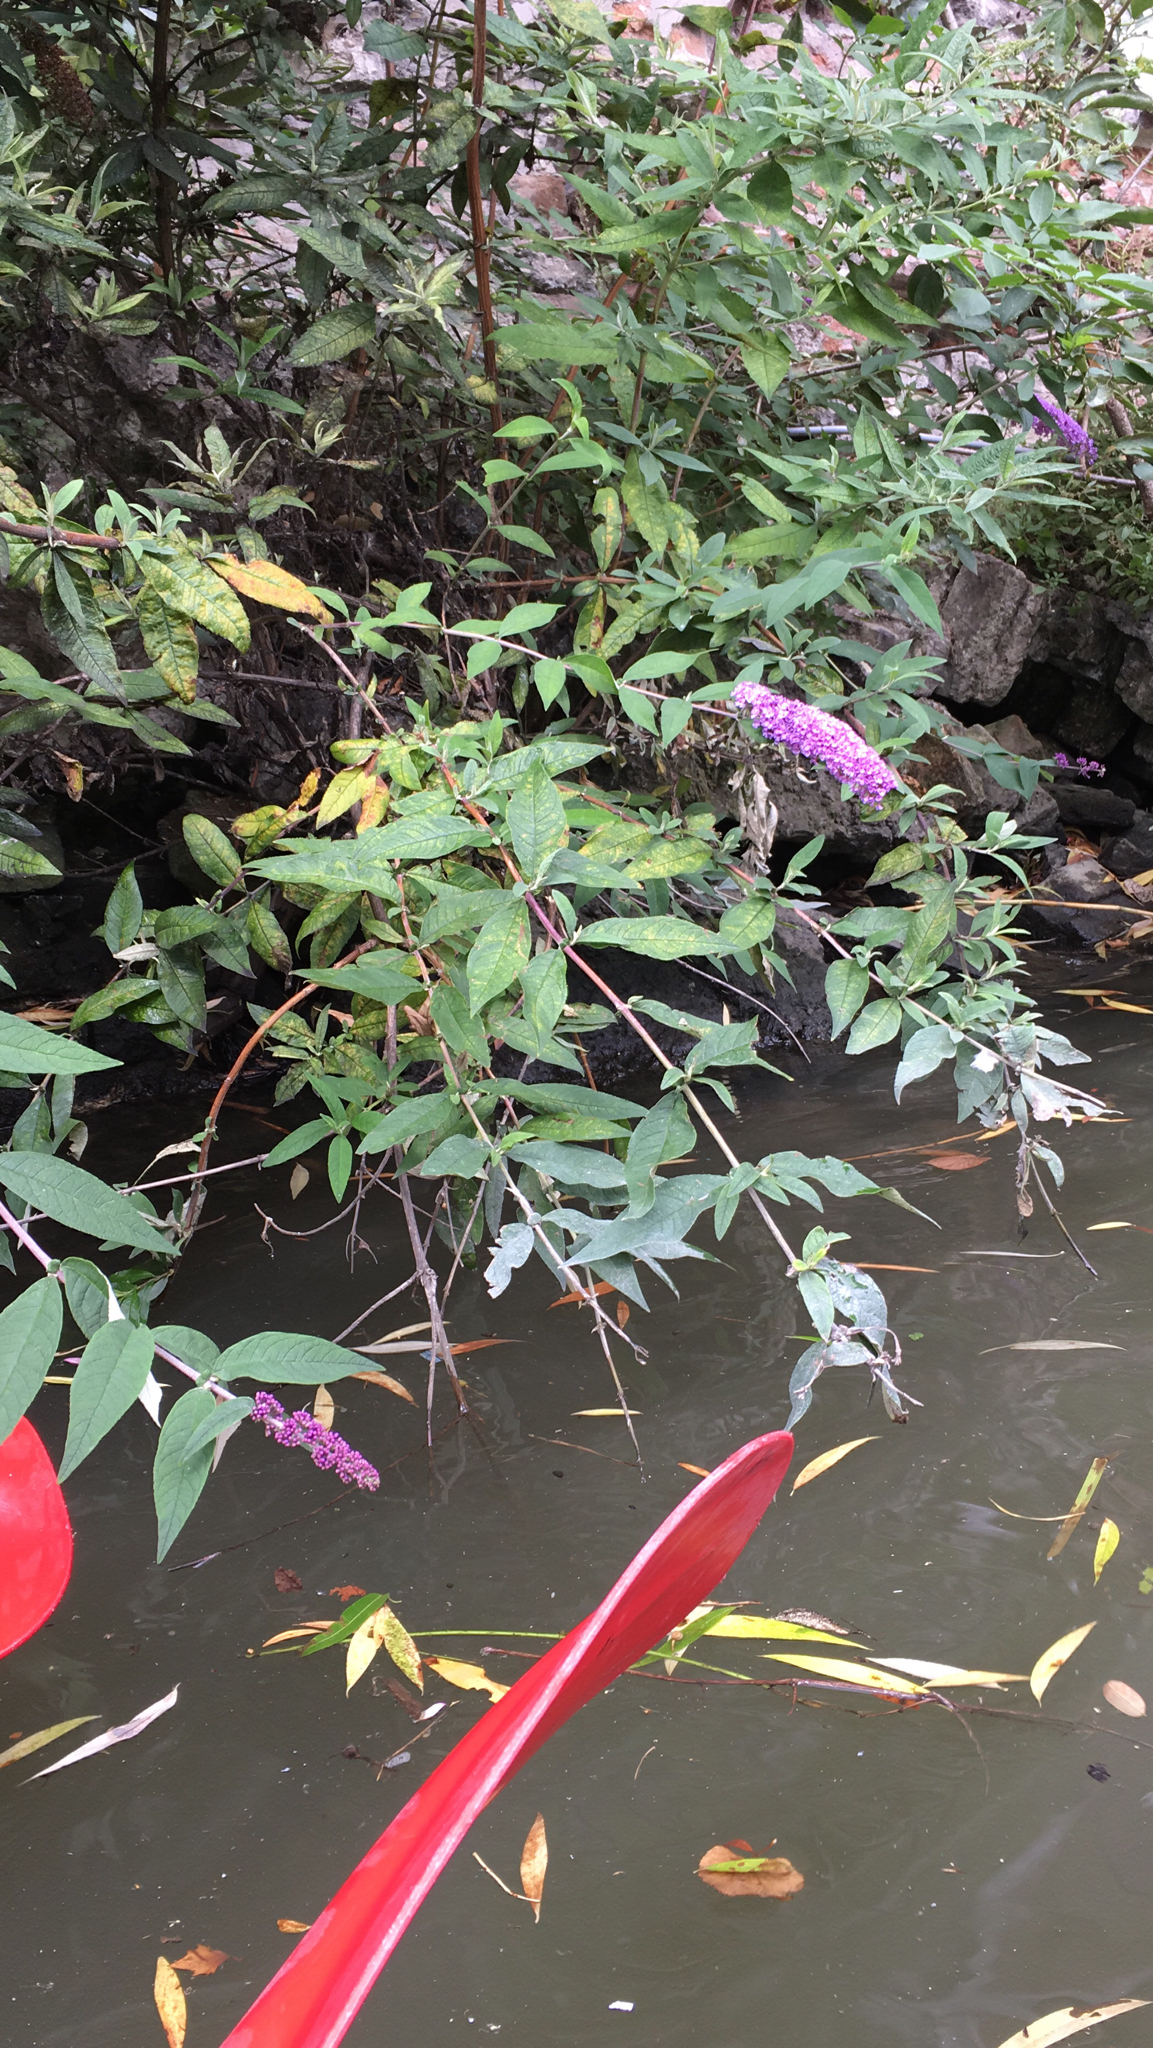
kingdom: Plantae
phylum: Tracheophyta
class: Magnoliopsida
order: Lamiales
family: Scrophulariaceae
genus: Buddleja
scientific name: Buddleja davidii
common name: Butterfly-bush
